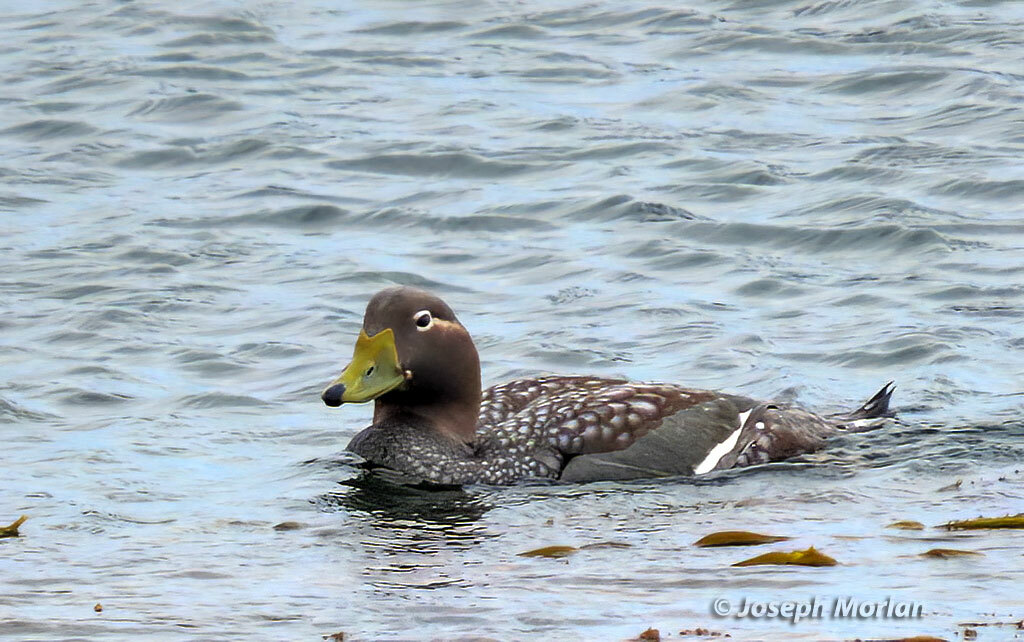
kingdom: Animalia
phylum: Chordata
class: Aves
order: Anseriformes
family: Anatidae
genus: Tachyeres
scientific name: Tachyeres brachypterus
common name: Falkland steamer duck
